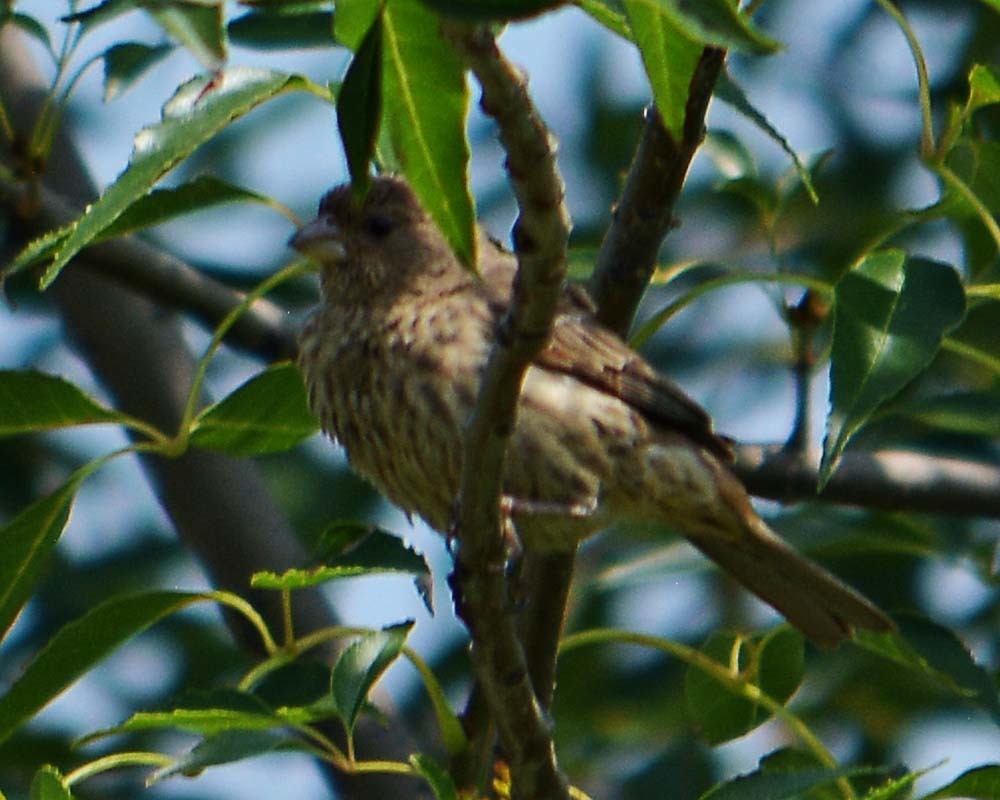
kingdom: Animalia
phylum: Chordata
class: Aves
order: Passeriformes
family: Fringillidae
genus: Haemorhous
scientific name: Haemorhous mexicanus
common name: House finch
